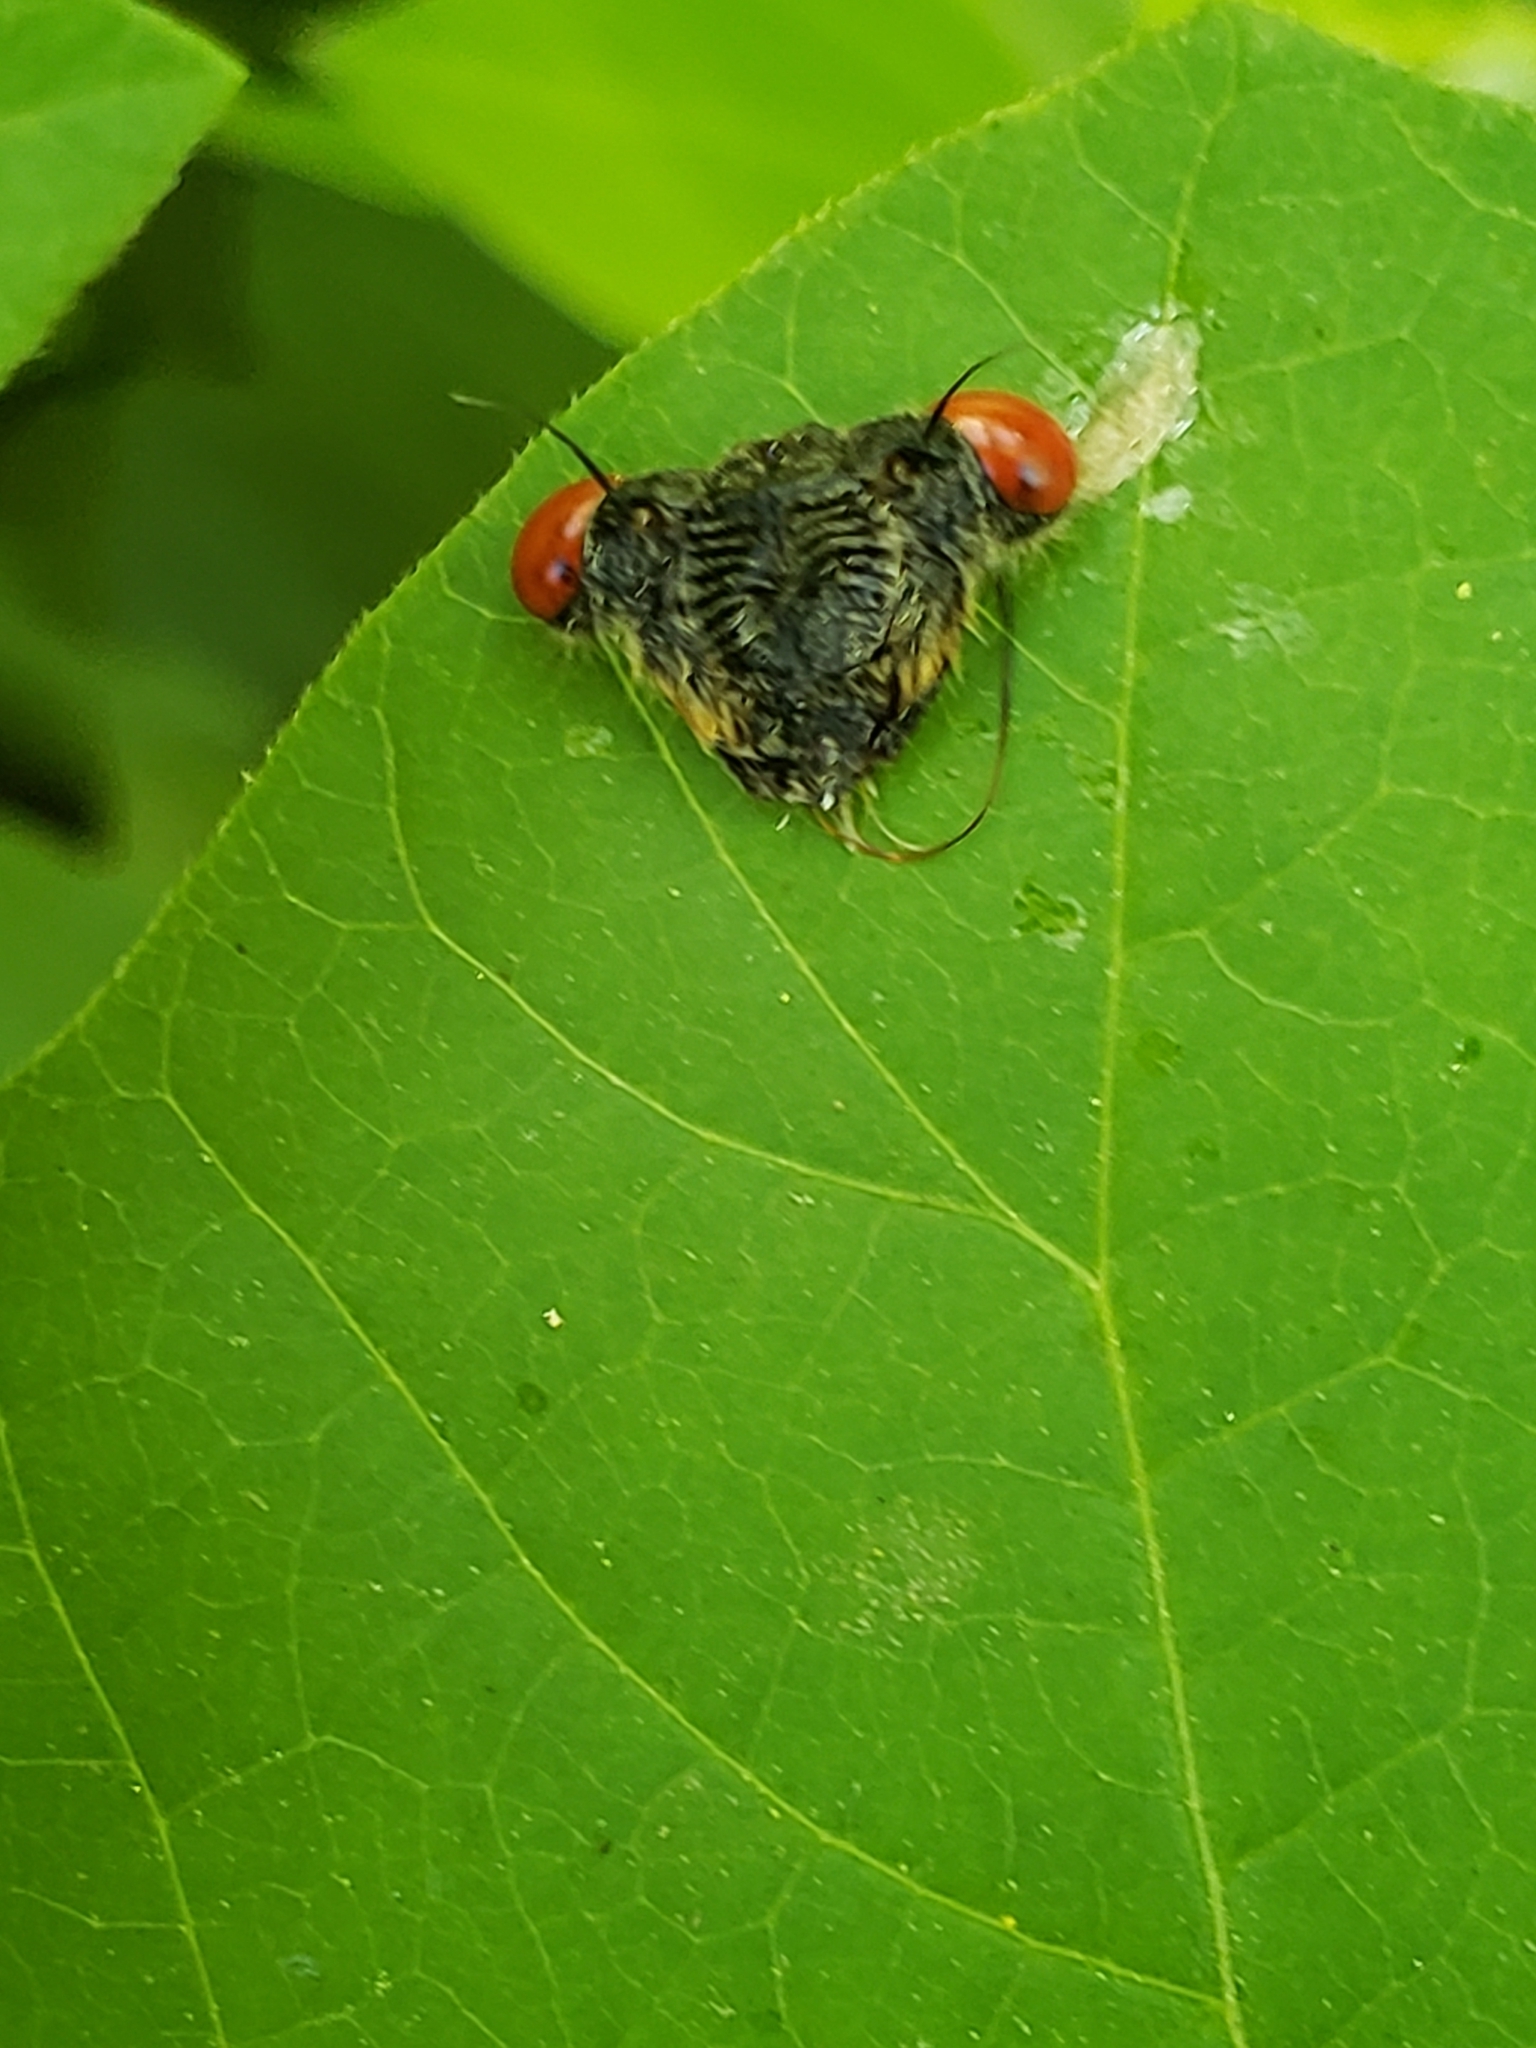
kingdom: Animalia
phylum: Arthropoda
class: Insecta
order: Hemiptera
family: Cicadidae
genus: Magicicada
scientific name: Magicicada
